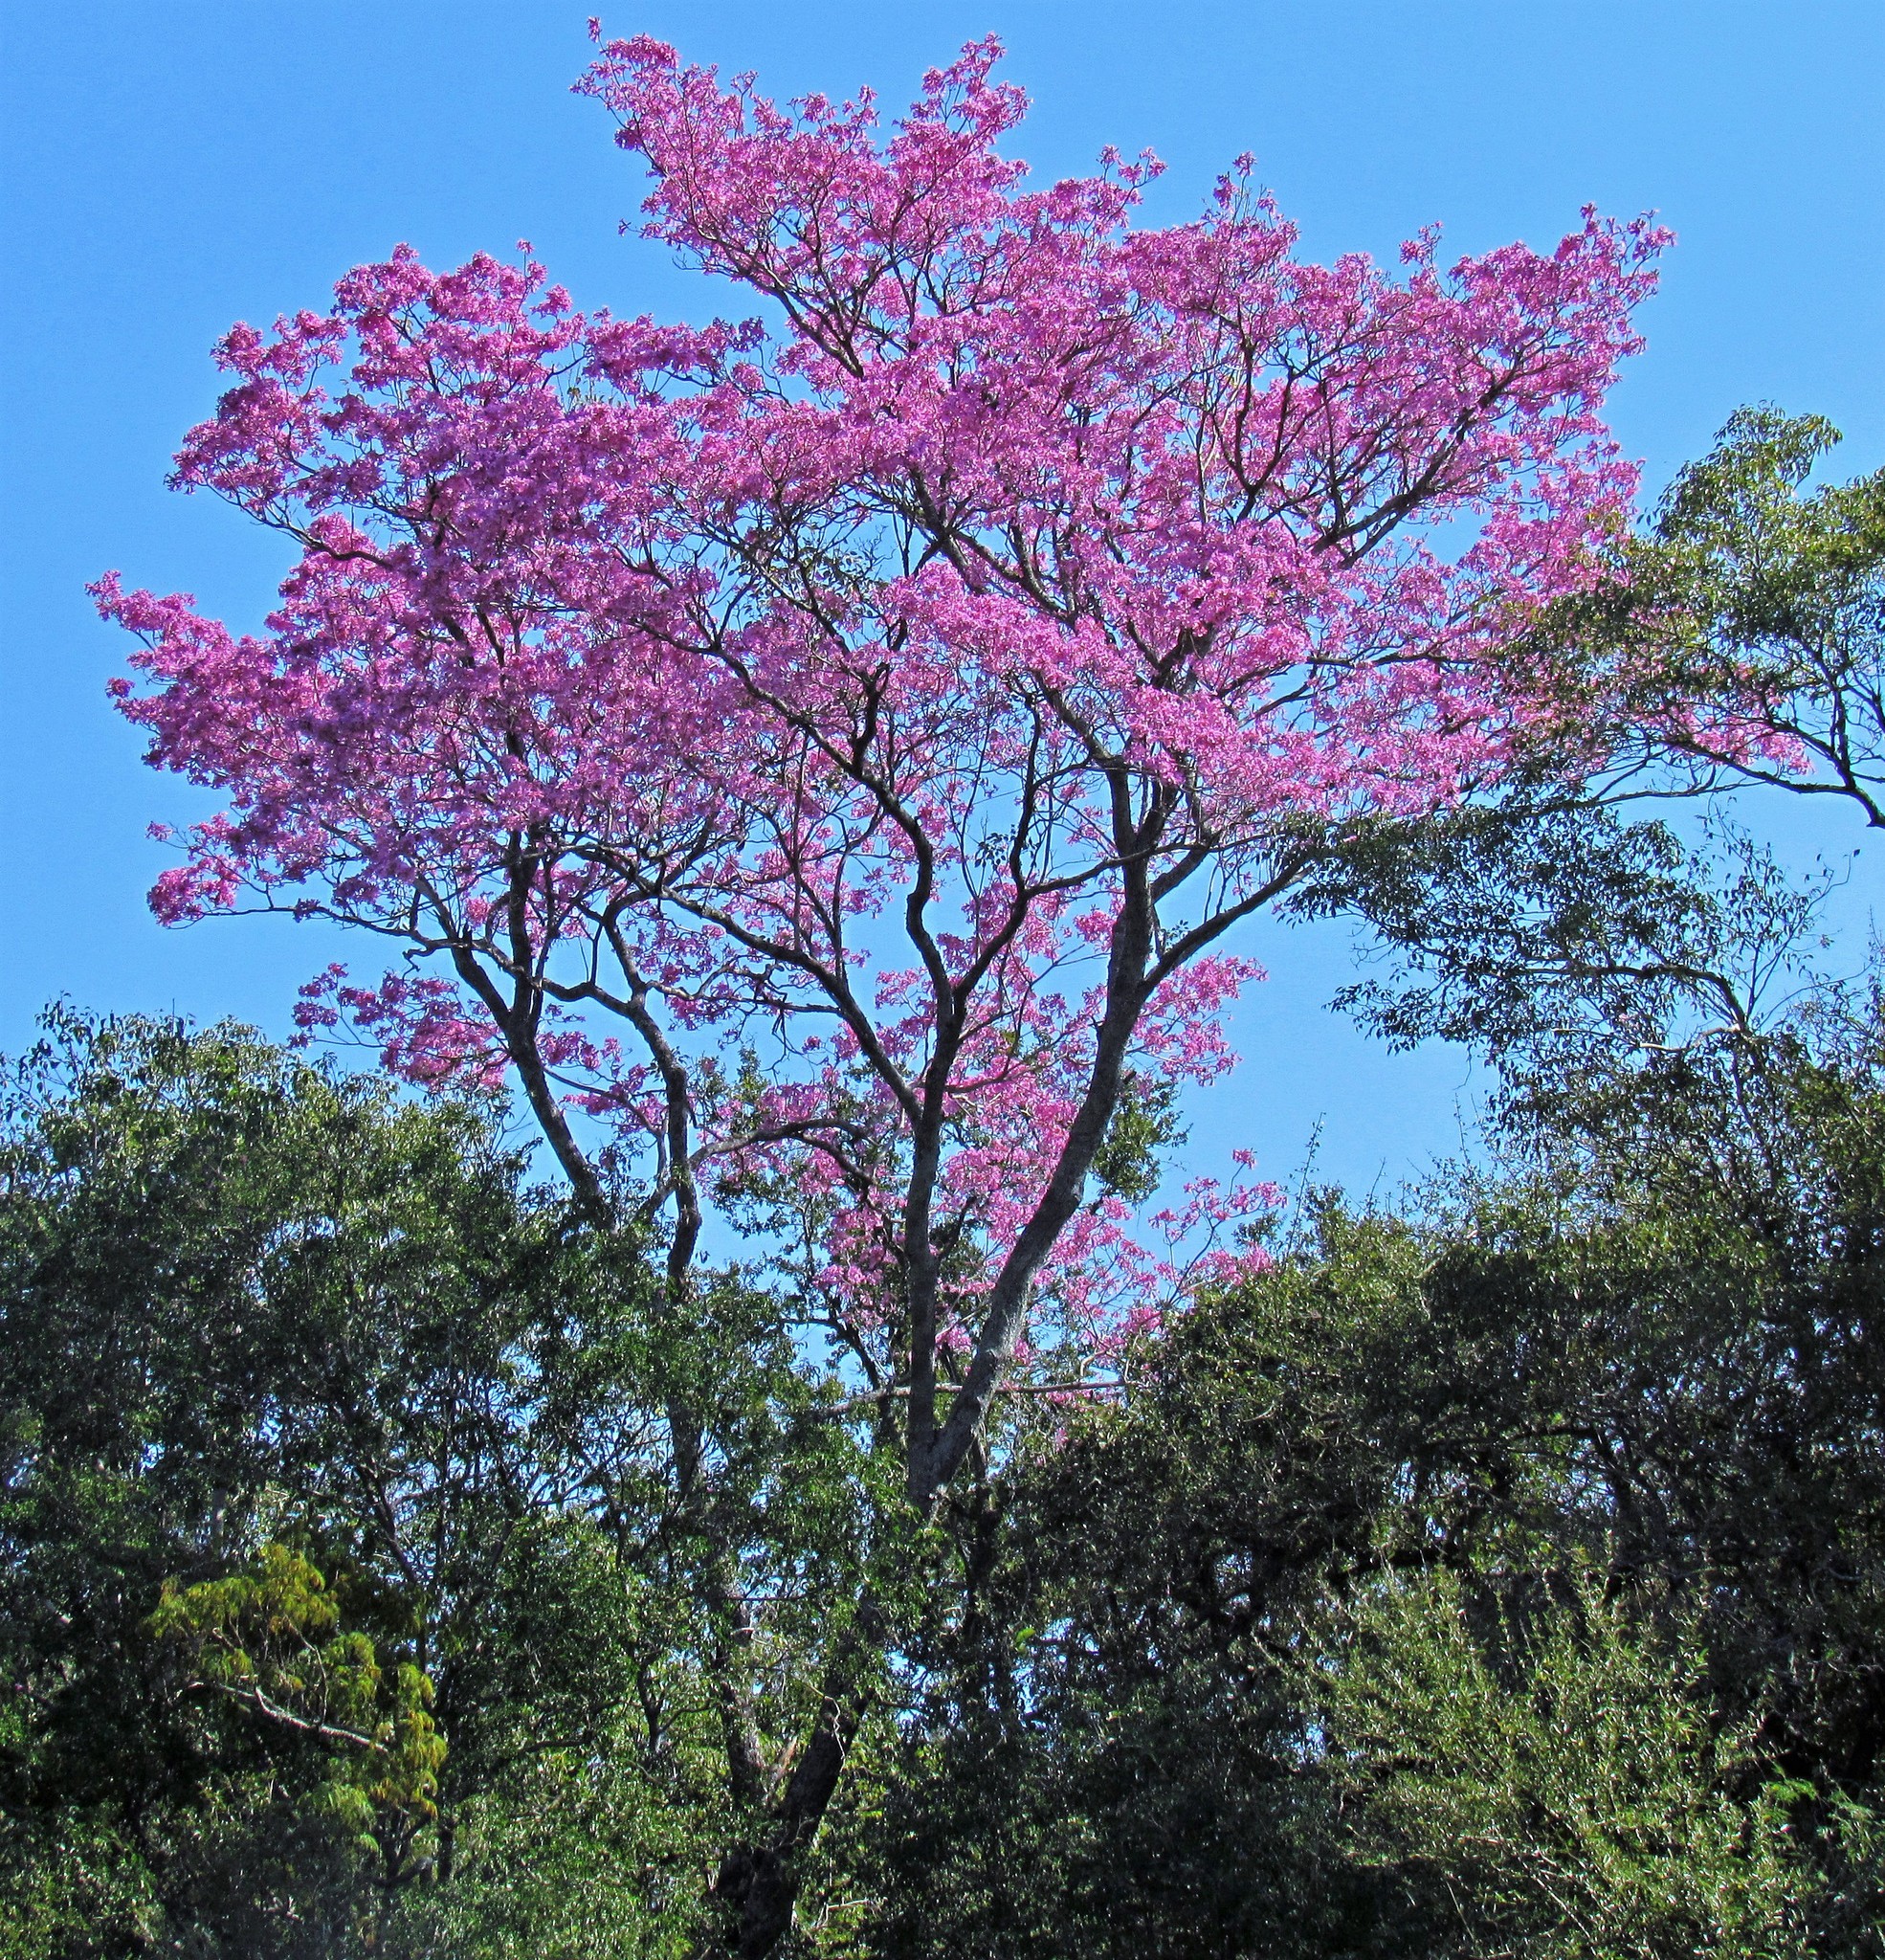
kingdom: Plantae
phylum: Tracheophyta
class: Magnoliopsida
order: Lamiales
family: Bignoniaceae
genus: Handroanthus
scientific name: Handroanthus heptaphyllus
